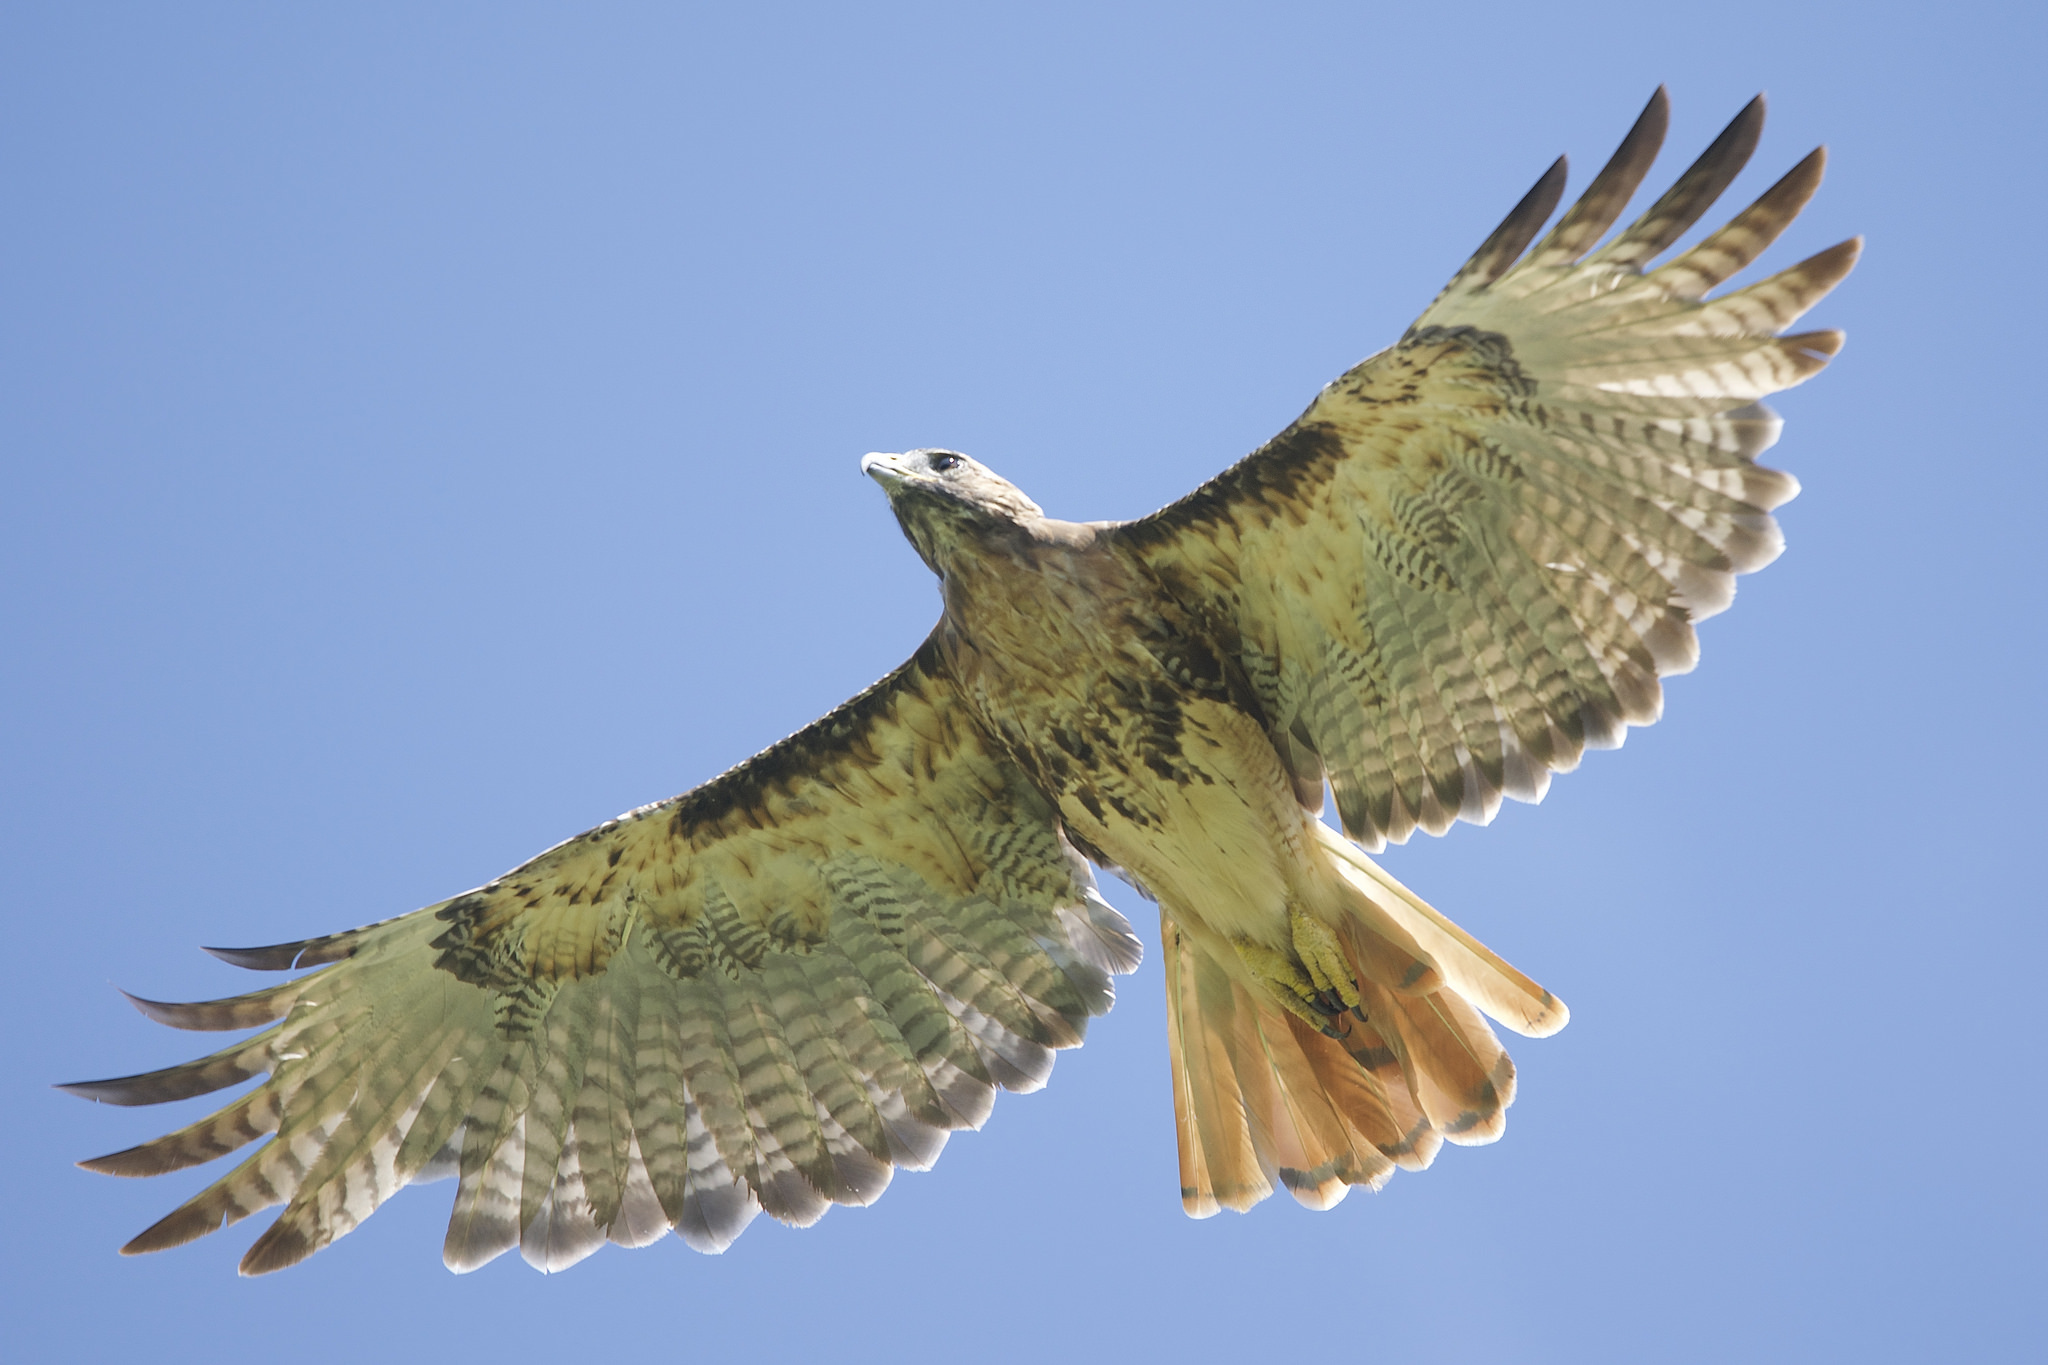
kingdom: Animalia
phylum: Chordata
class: Aves
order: Accipitriformes
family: Accipitridae
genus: Buteo
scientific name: Buteo jamaicensis
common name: Red-tailed hawk
